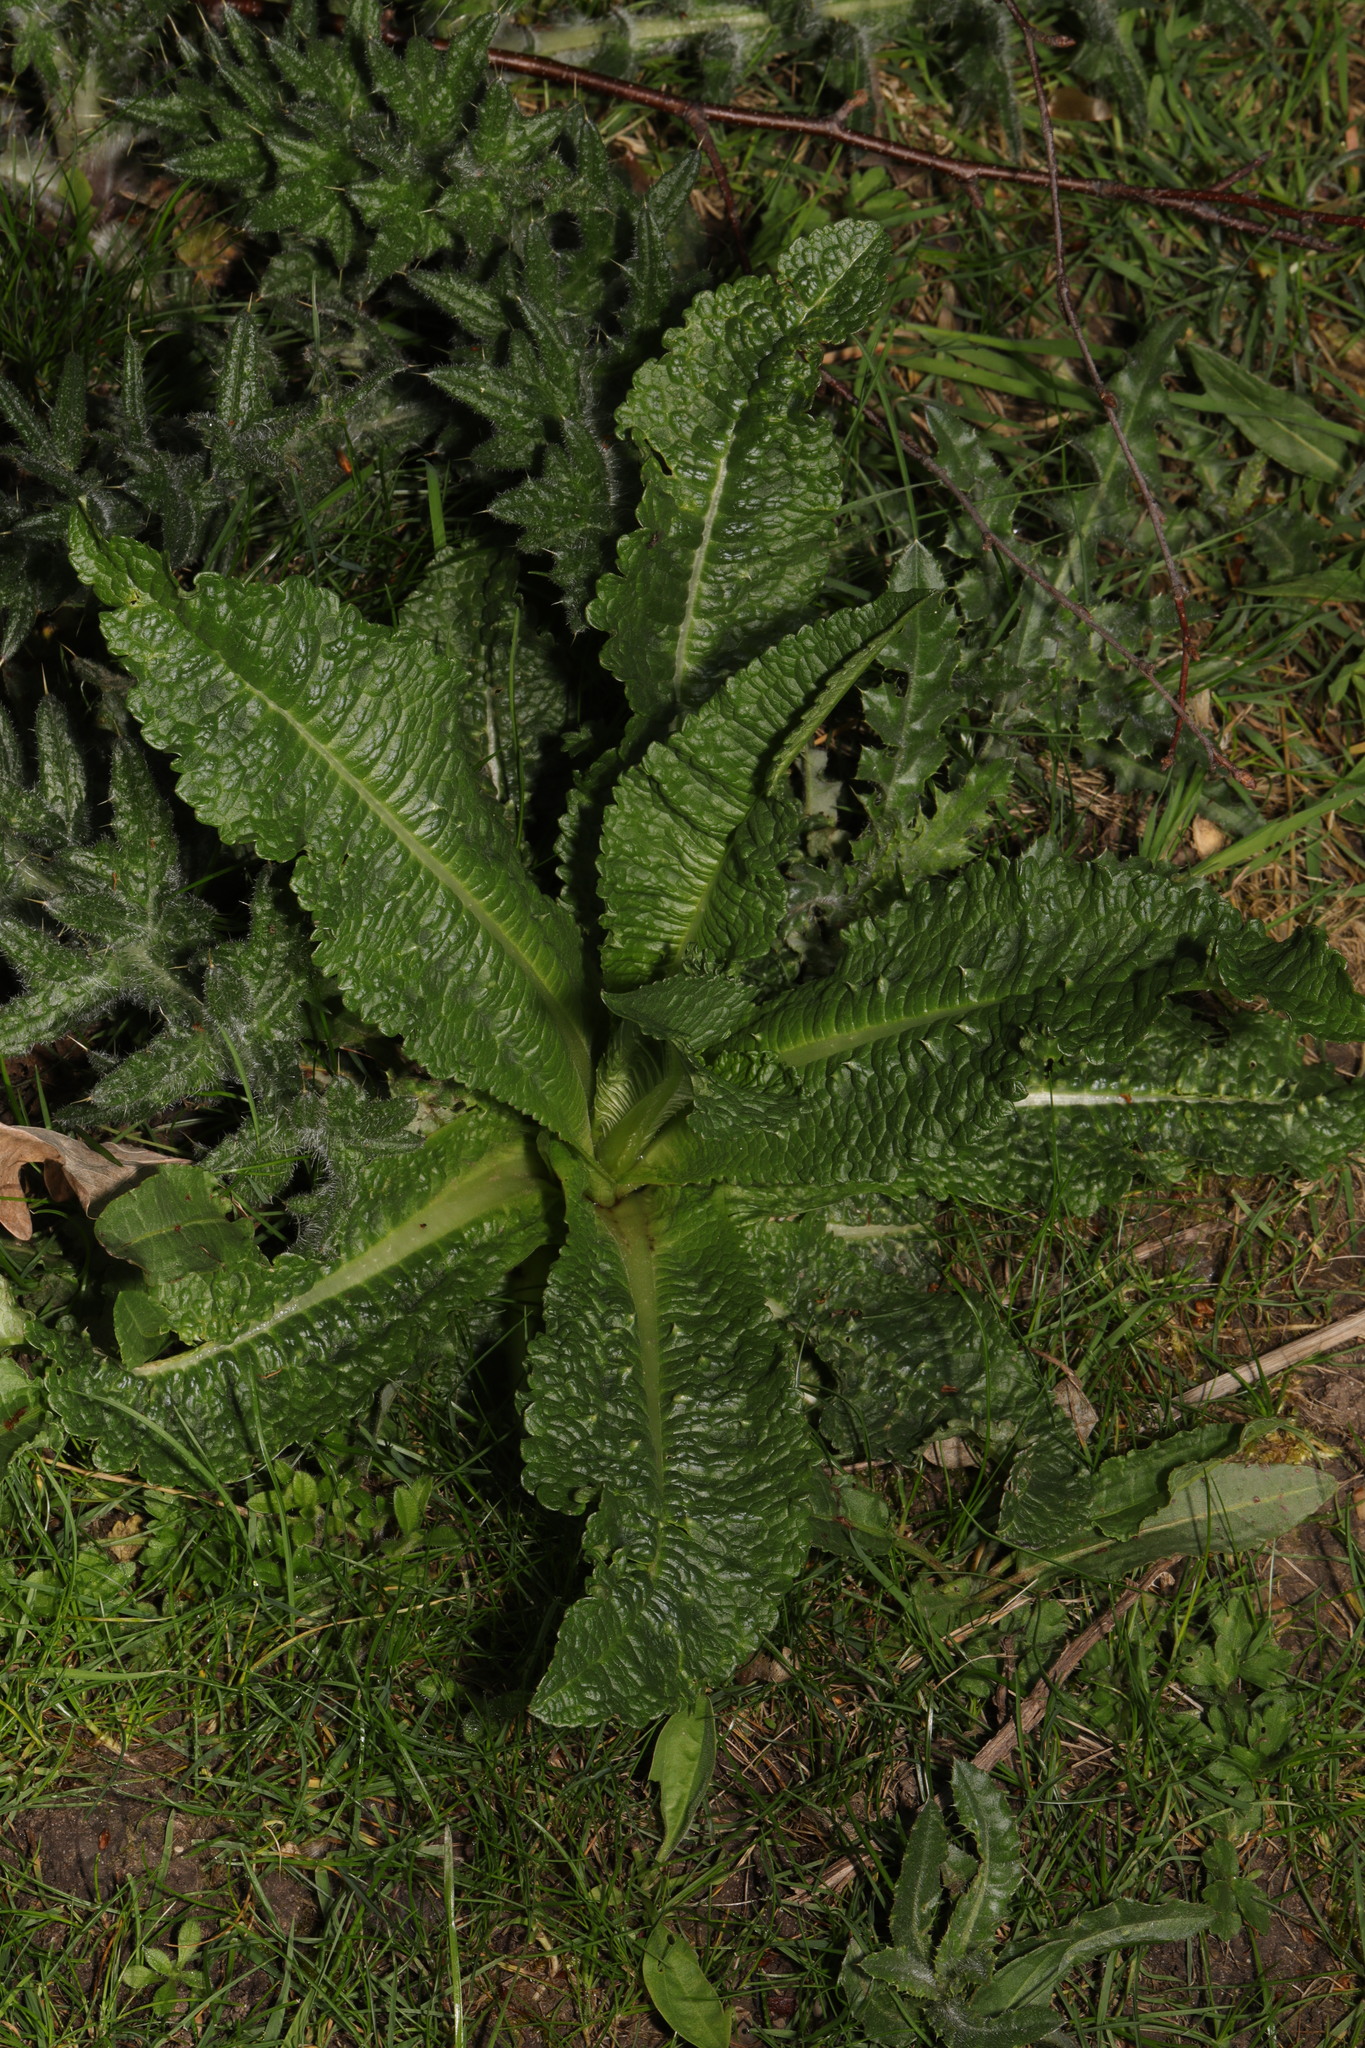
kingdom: Plantae
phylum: Tracheophyta
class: Magnoliopsida
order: Dipsacales
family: Caprifoliaceae
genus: Dipsacus
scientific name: Dipsacus fullonum
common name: Teasel
